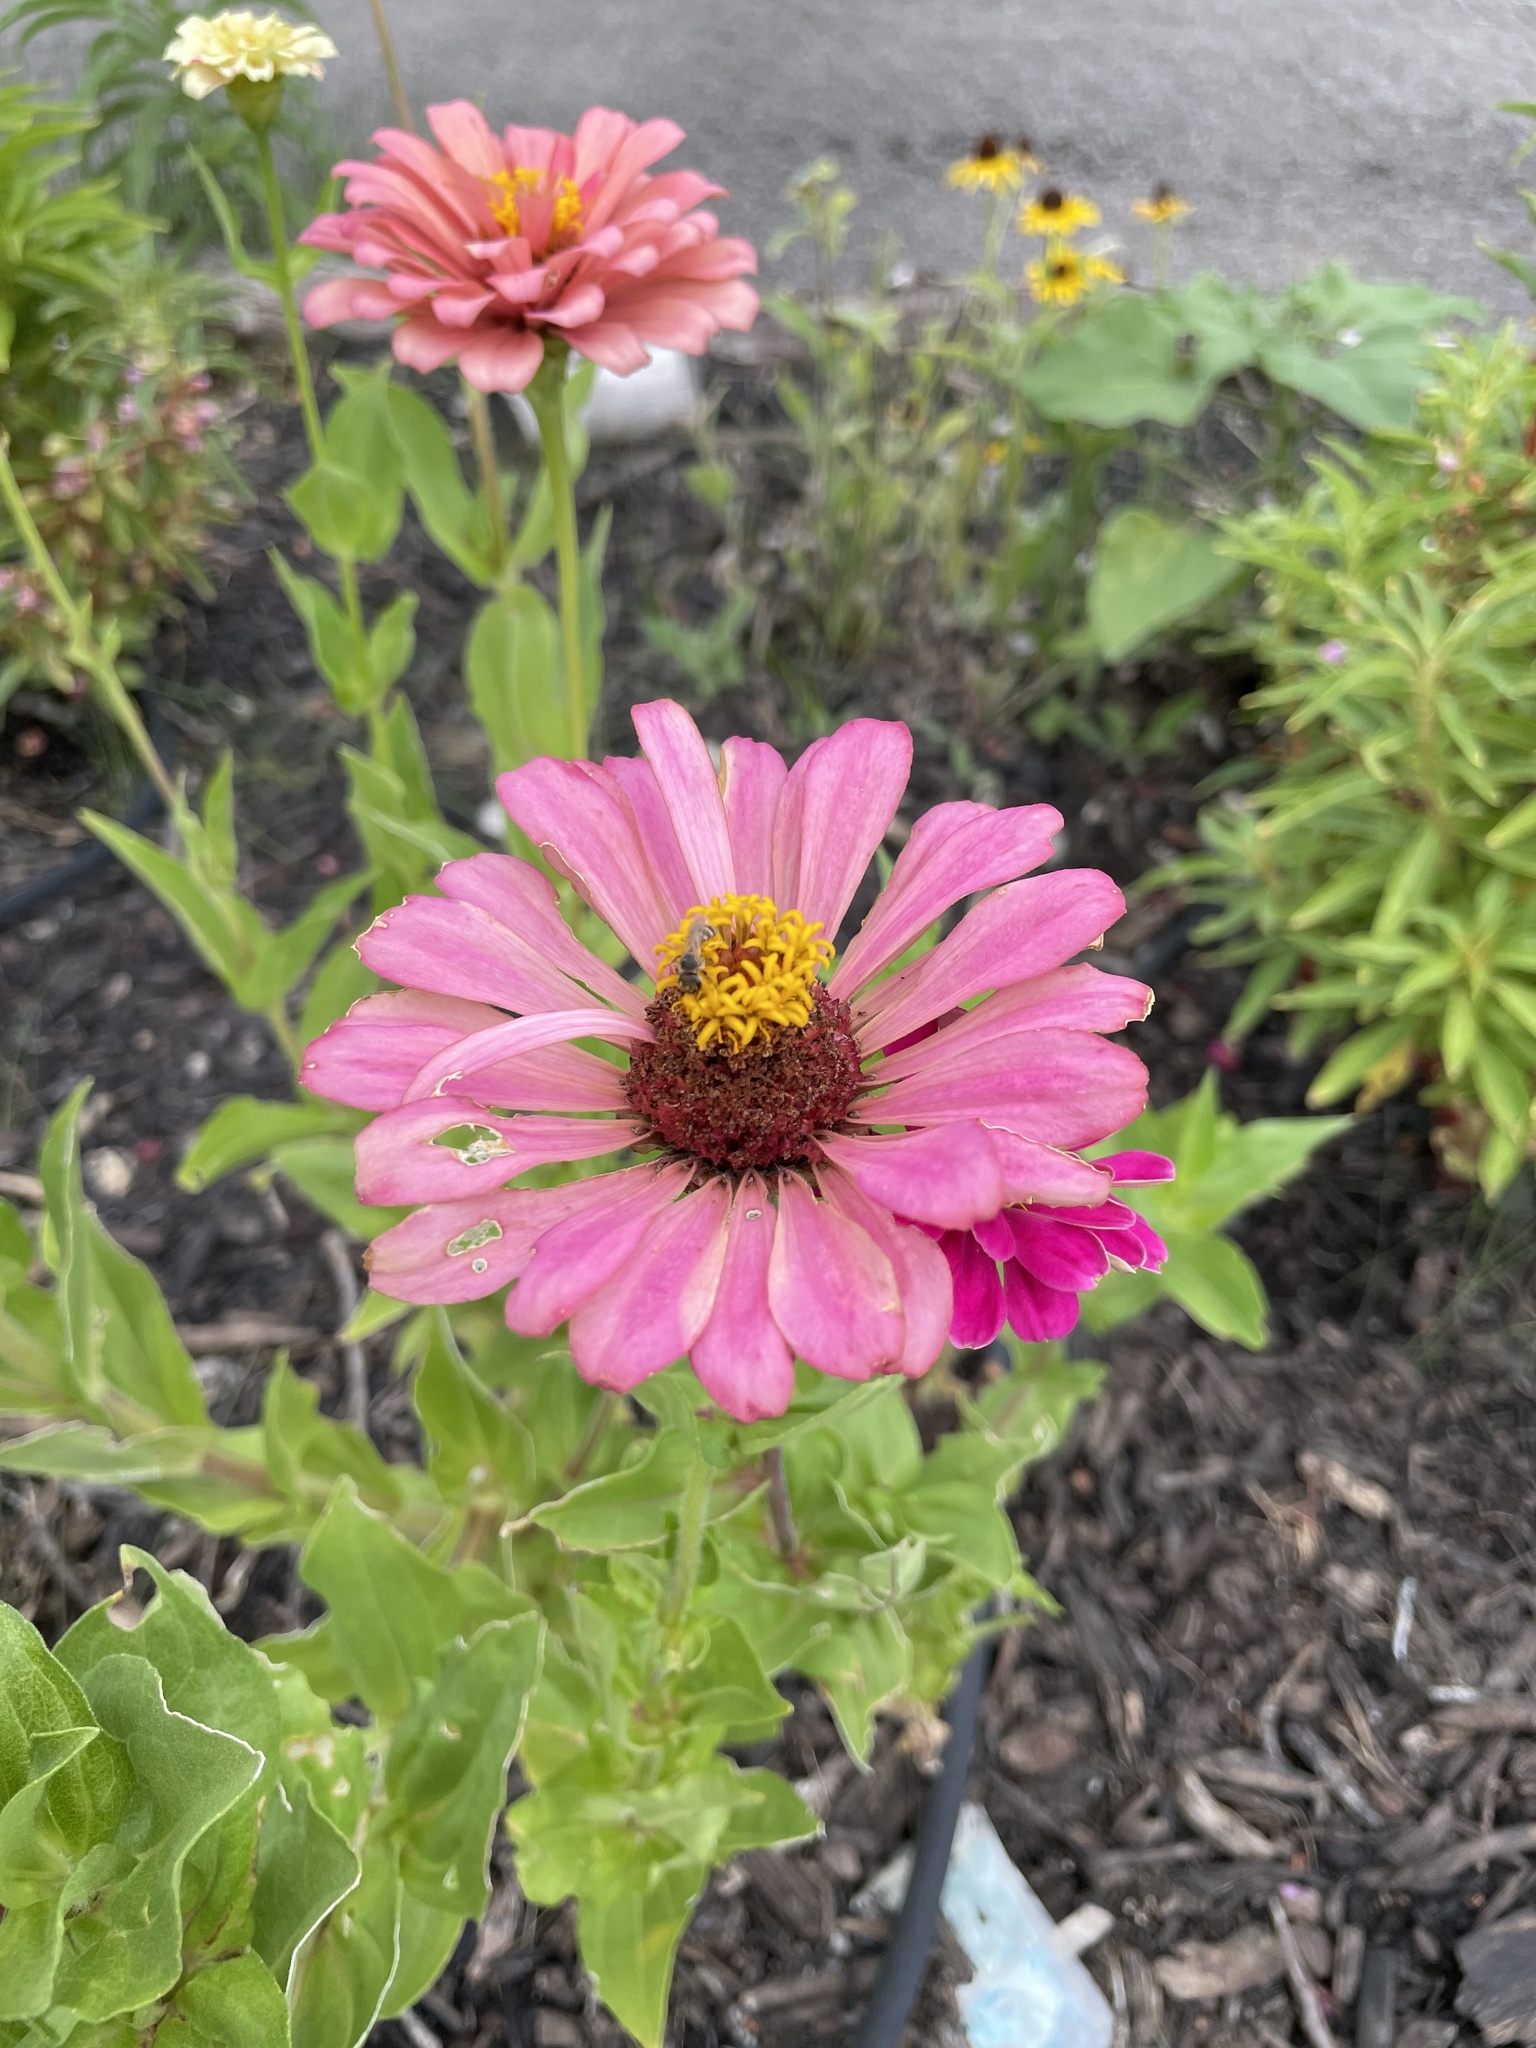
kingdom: Animalia
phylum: Arthropoda
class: Insecta
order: Hymenoptera
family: Halictidae
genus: Halictus
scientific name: Halictus ligatus
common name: Ligated furrow bee
